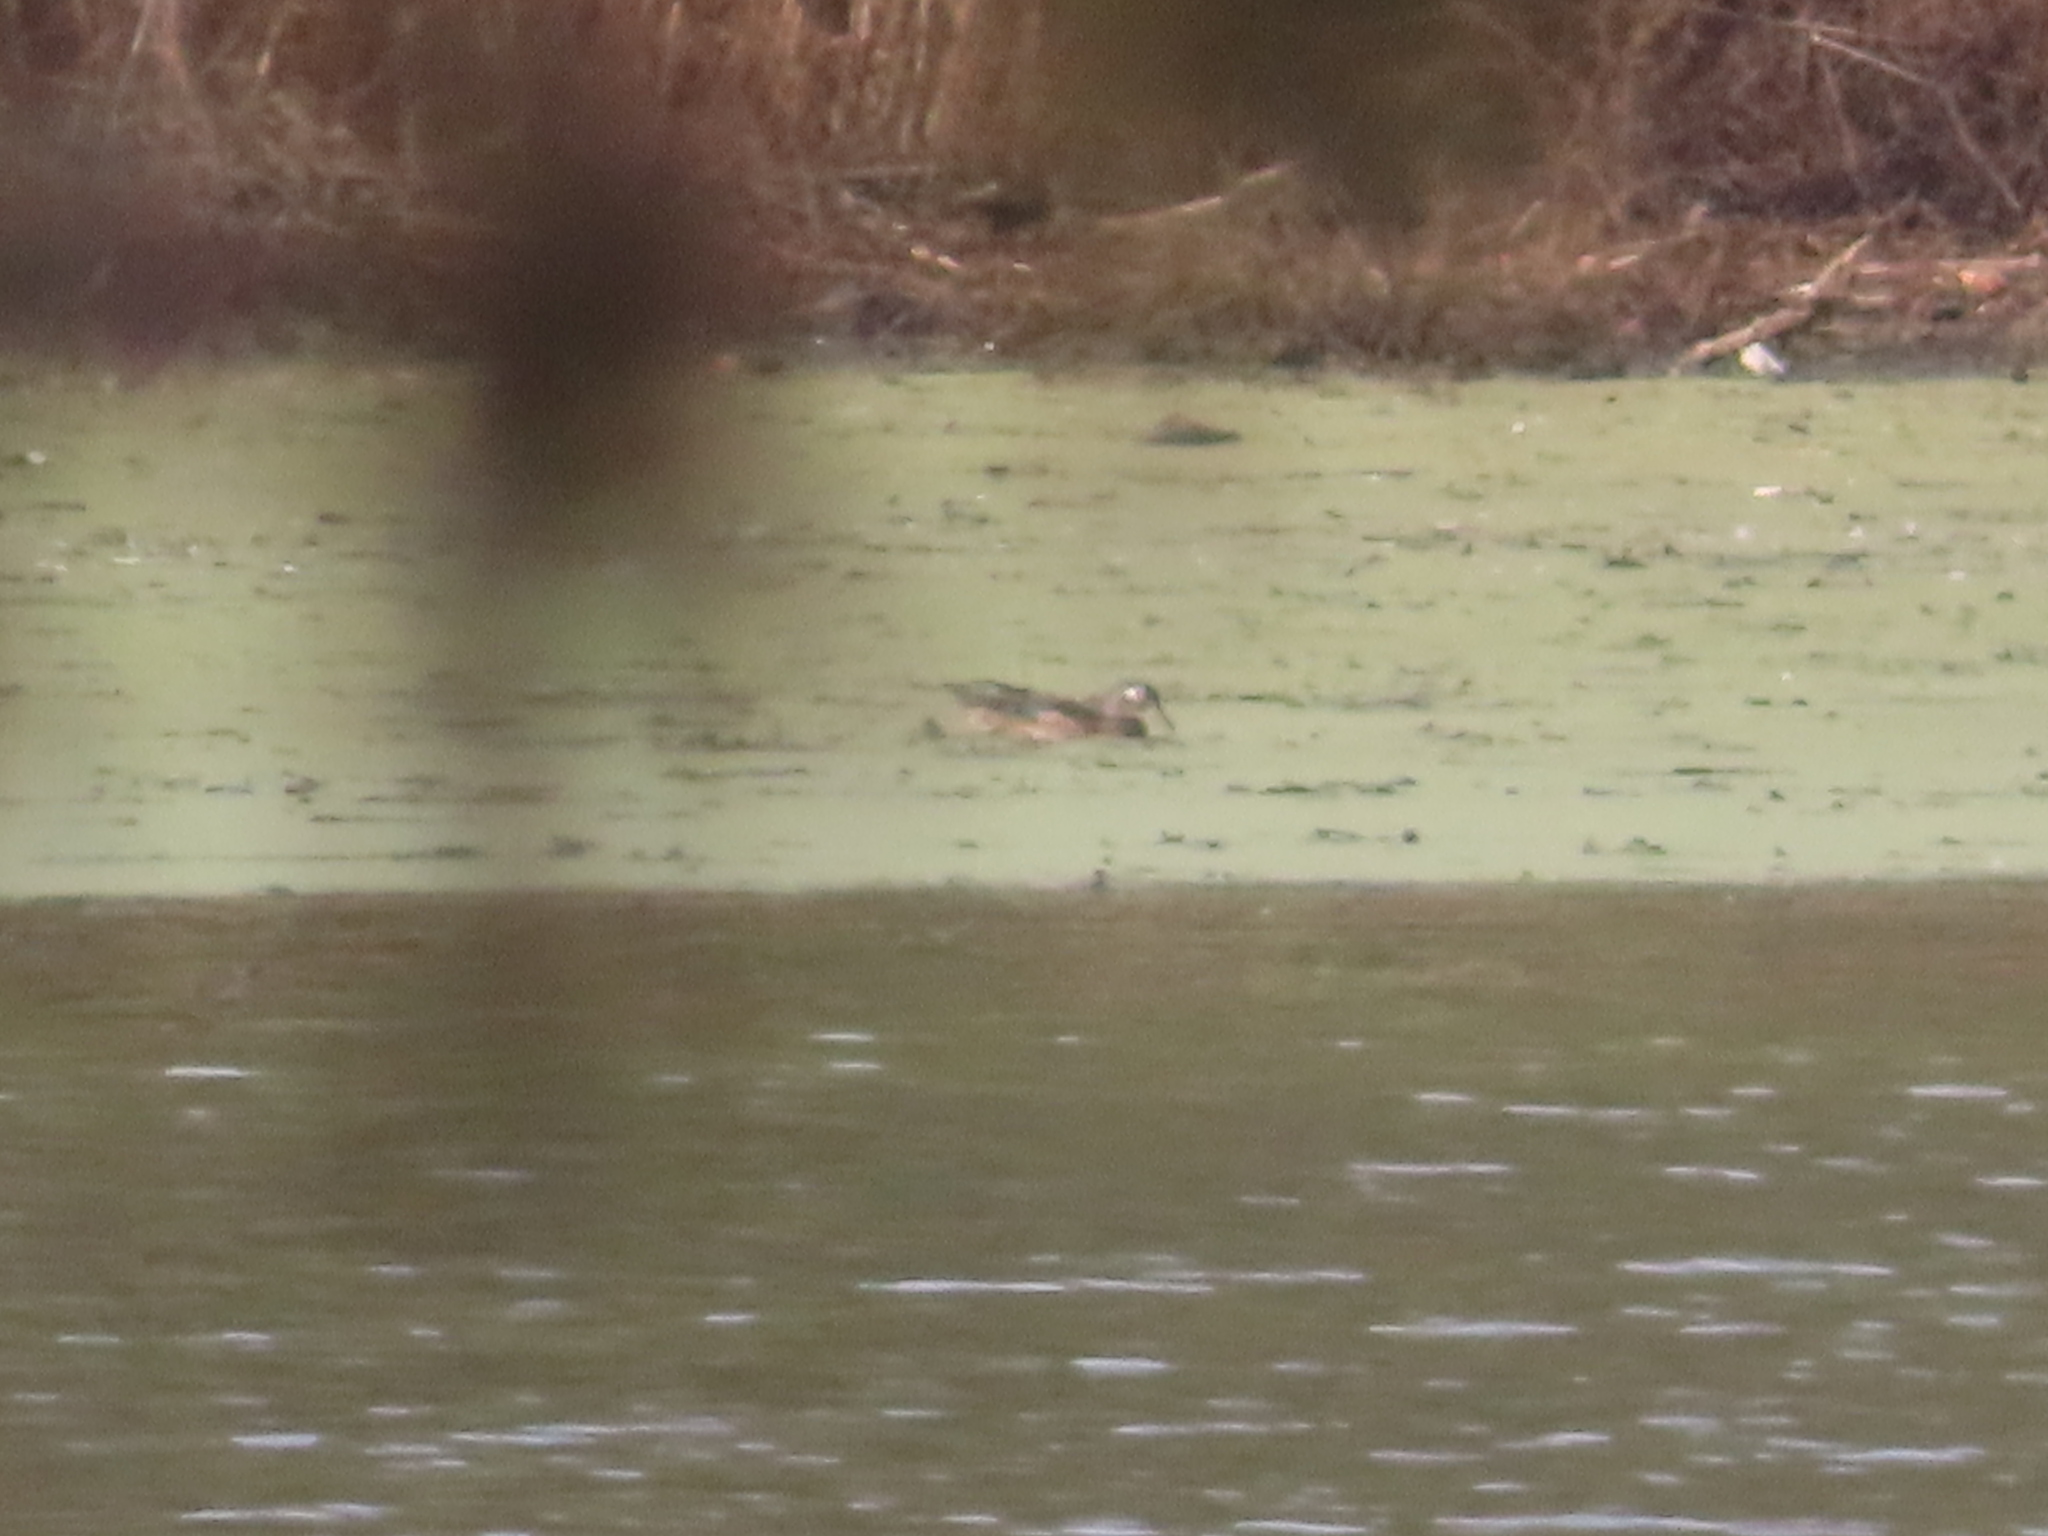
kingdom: Animalia
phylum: Chordata
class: Aves
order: Anseriformes
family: Anatidae
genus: Aix
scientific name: Aix sponsa
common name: Wood duck
